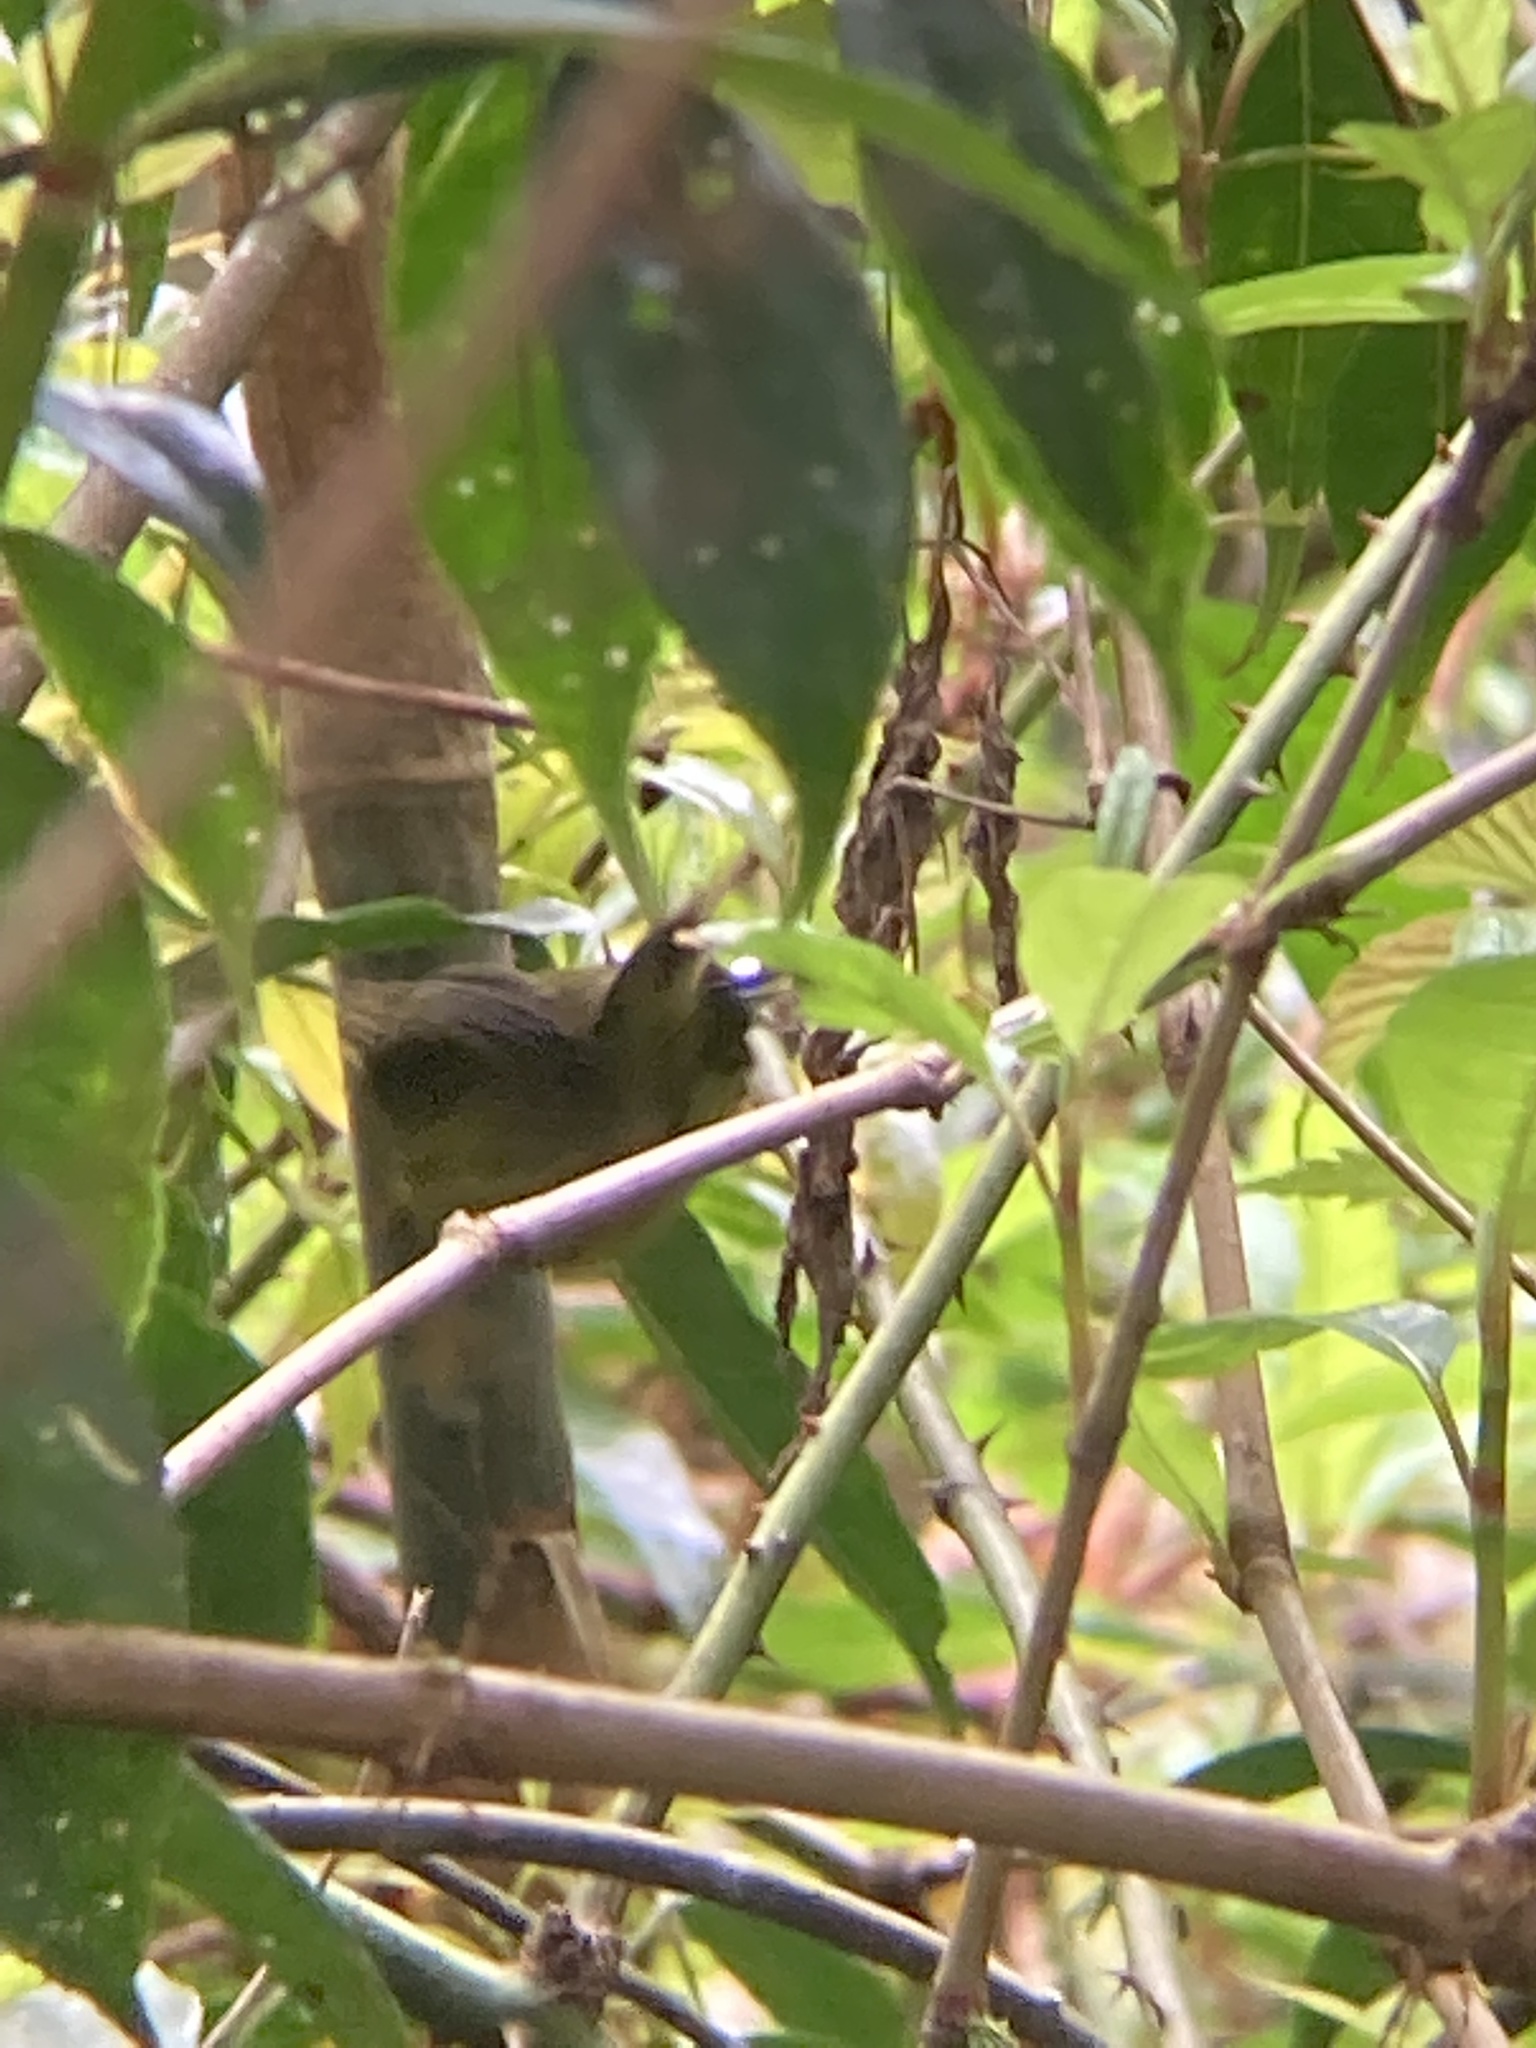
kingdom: Animalia
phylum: Chordata
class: Aves
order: Passeriformes
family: Cettiidae
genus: Cettia
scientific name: Cettia castaneocoronata
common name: Chestnut-headed tesia
